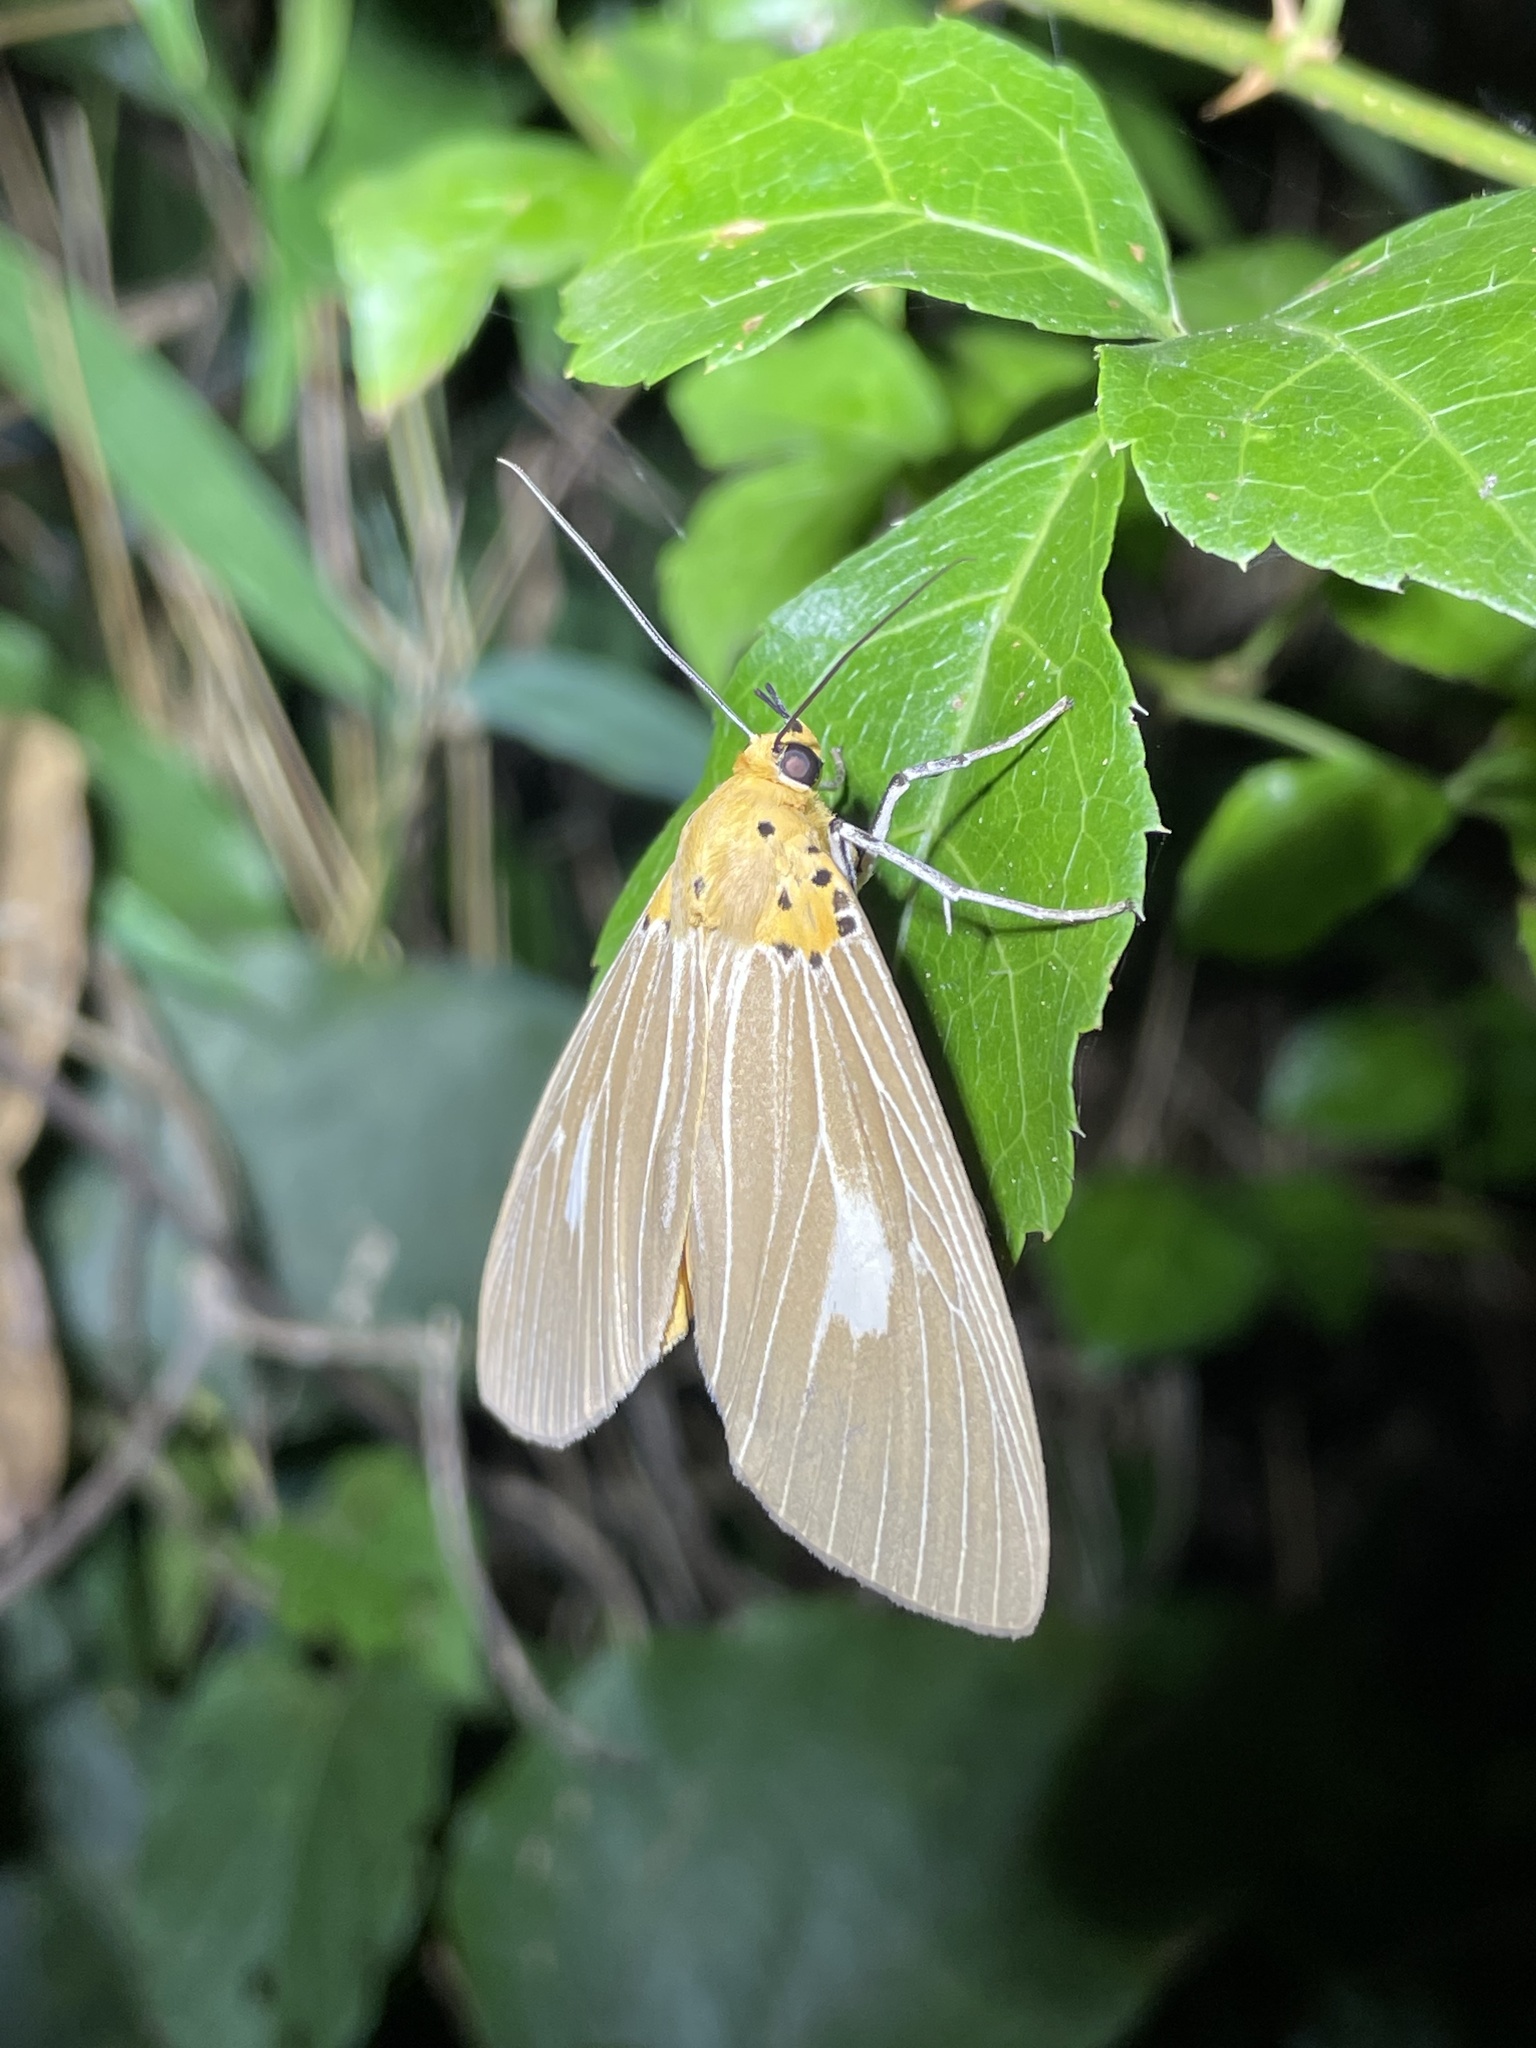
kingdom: Animalia
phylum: Arthropoda
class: Insecta
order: Lepidoptera
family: Erebidae
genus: Asota
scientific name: Asota plaginota
